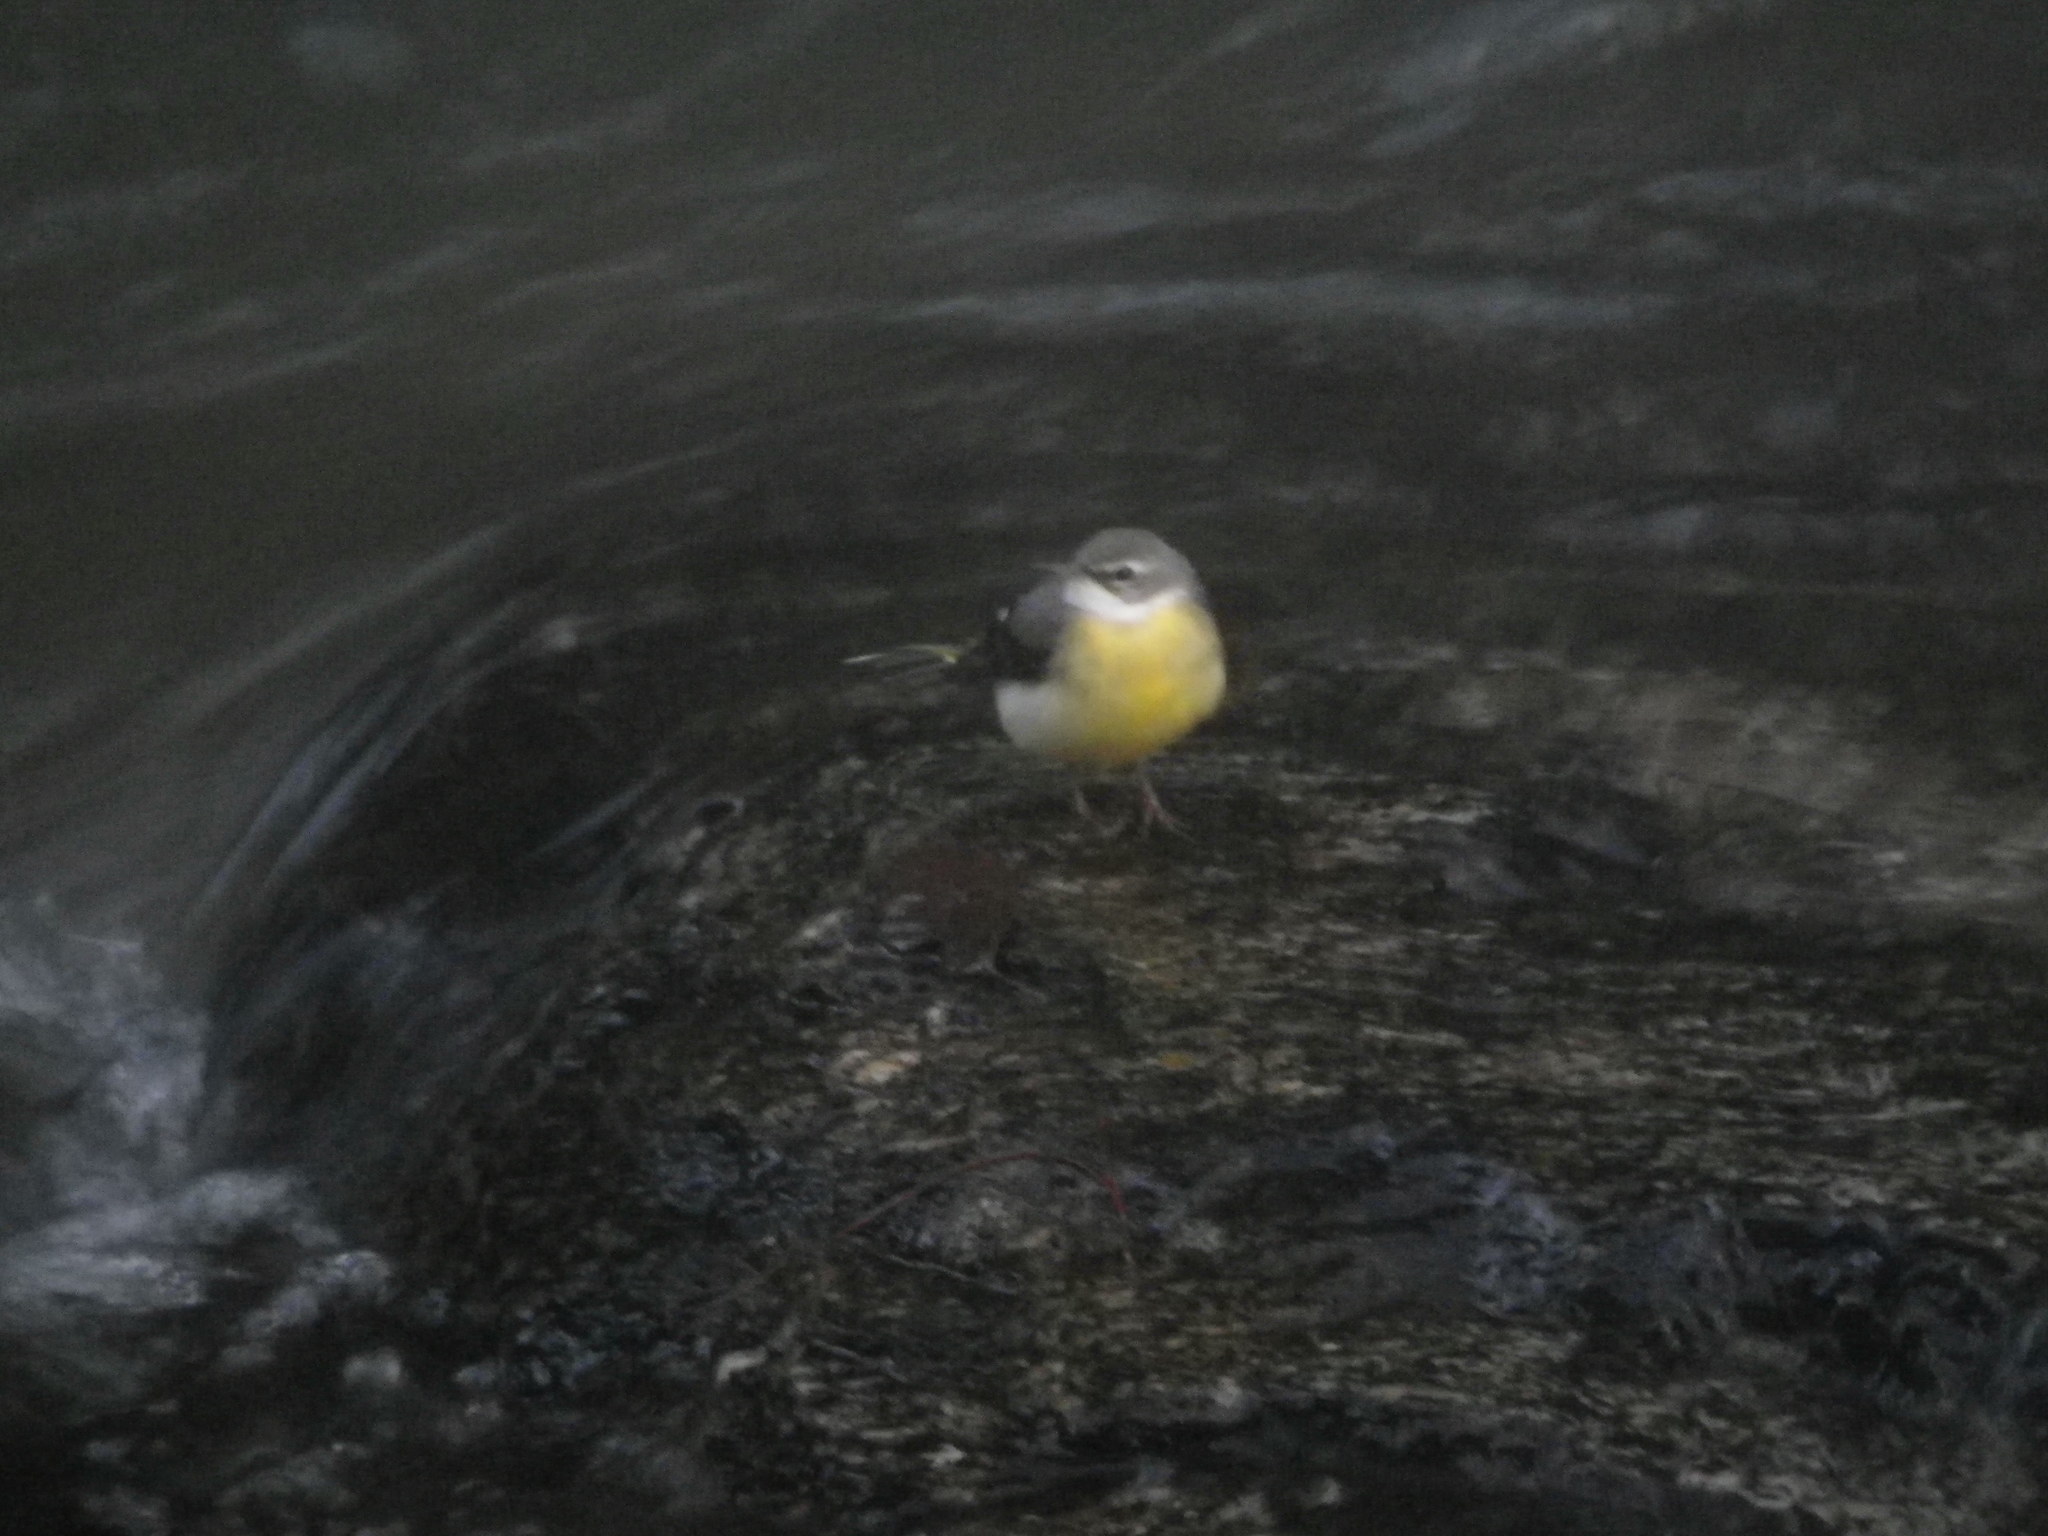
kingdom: Animalia
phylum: Chordata
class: Aves
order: Passeriformes
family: Motacillidae
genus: Motacilla
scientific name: Motacilla cinerea
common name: Grey wagtail
